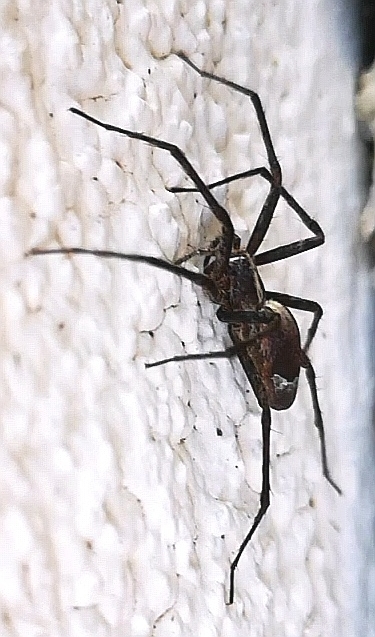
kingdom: Animalia
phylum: Arthropoda
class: Arachnida
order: Araneae
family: Pisauridae
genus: Pisaura
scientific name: Pisaura mirabilis
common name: Tent spider
